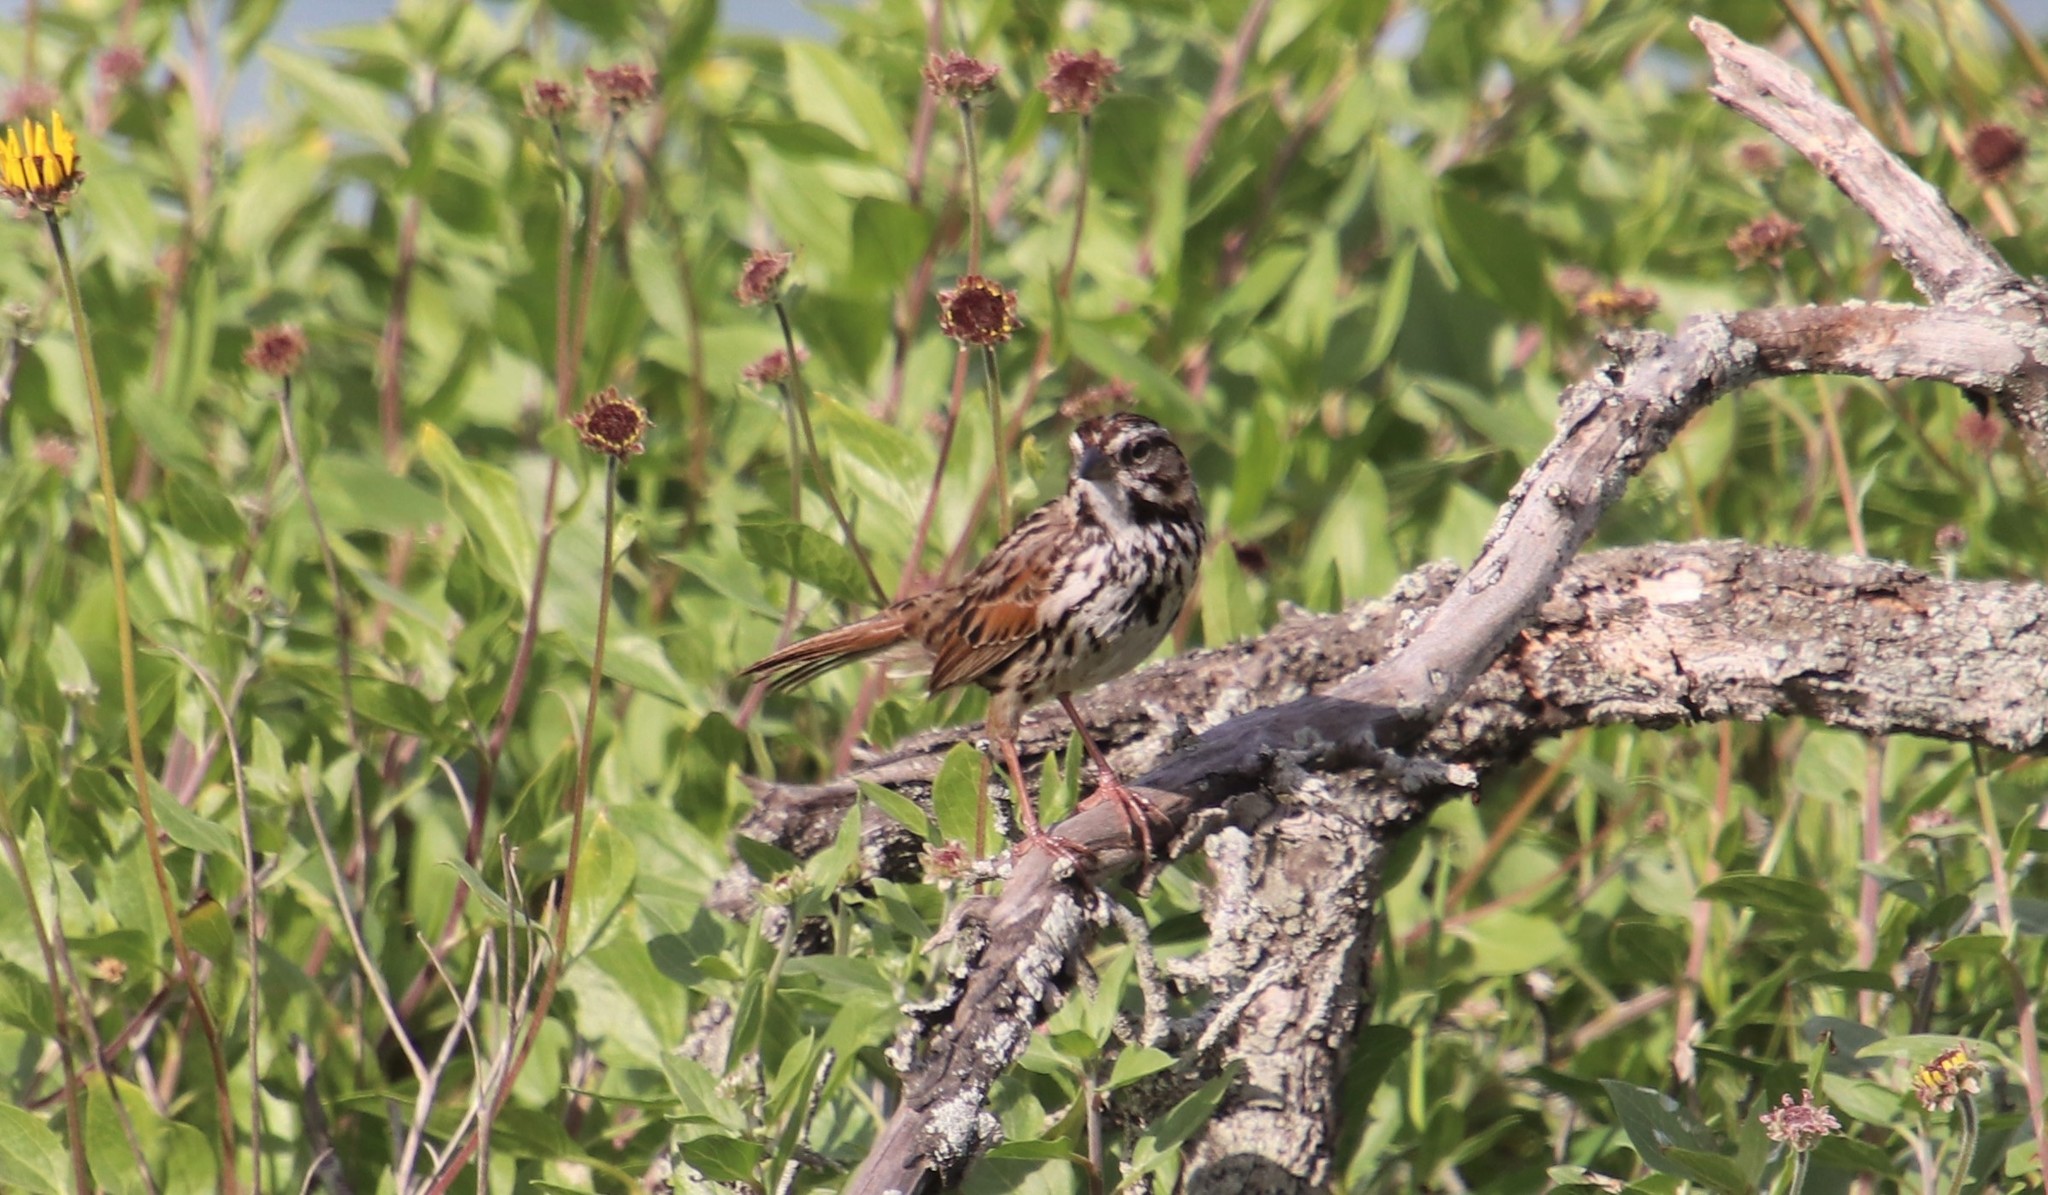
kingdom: Animalia
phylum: Chordata
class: Aves
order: Passeriformes
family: Passerellidae
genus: Melospiza
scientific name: Melospiza melodia
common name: Song sparrow
